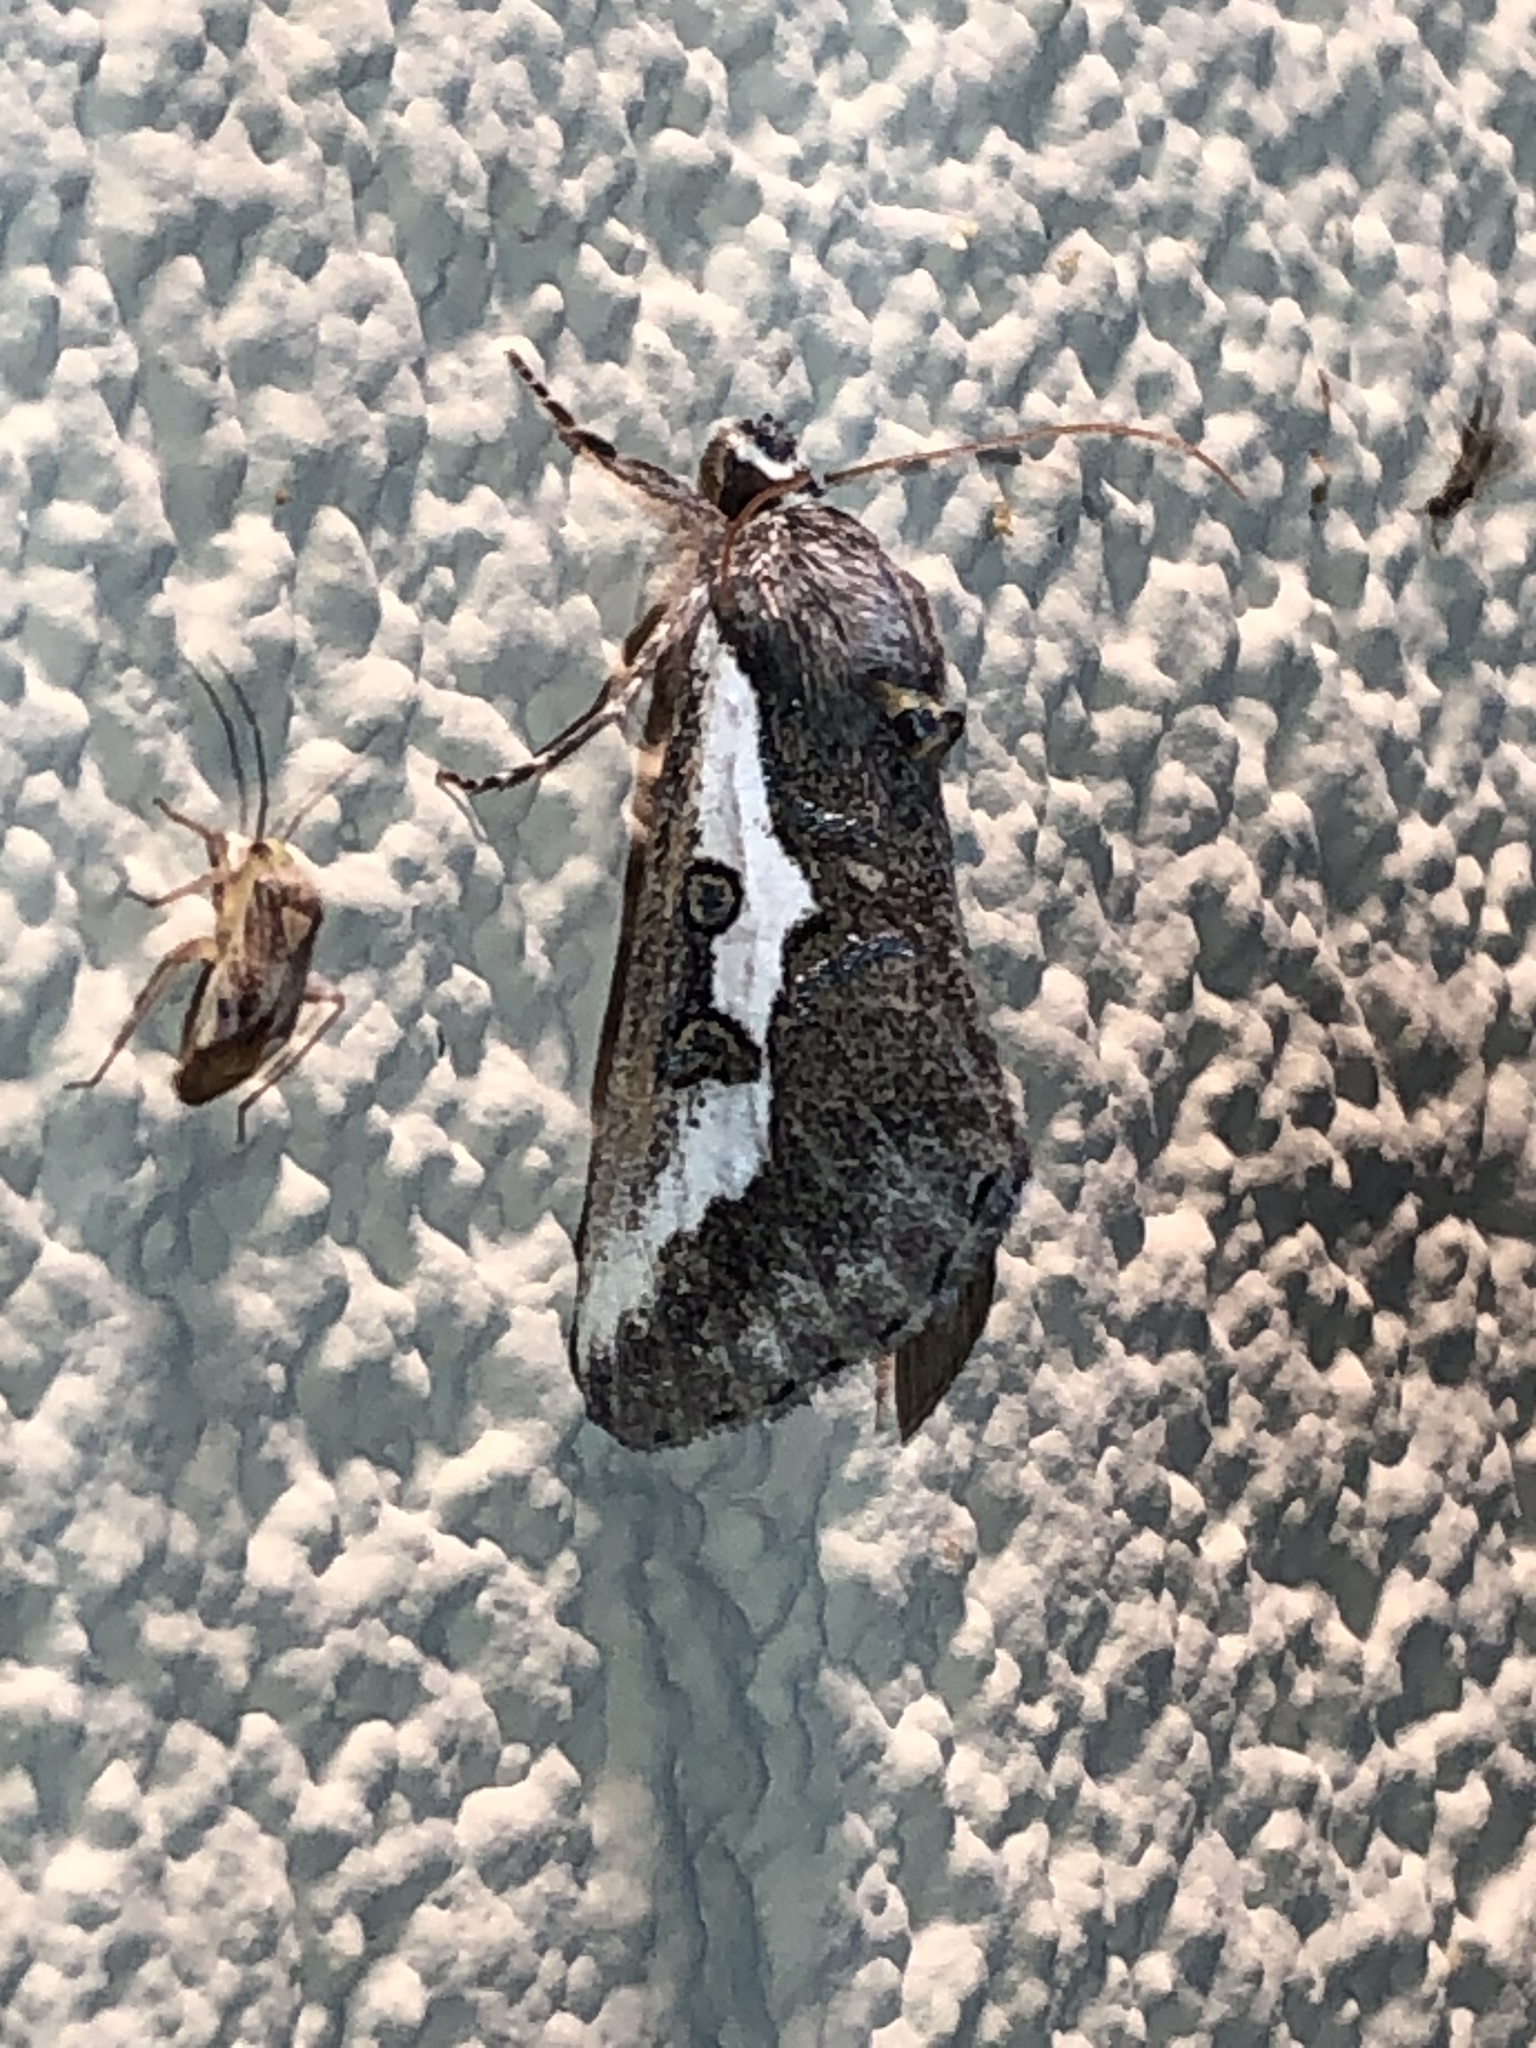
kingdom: Animalia
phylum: Arthropoda
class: Insecta
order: Lepidoptera
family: Noctuidae
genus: Euscirrhopterus
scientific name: Euscirrhopterus gloveri
